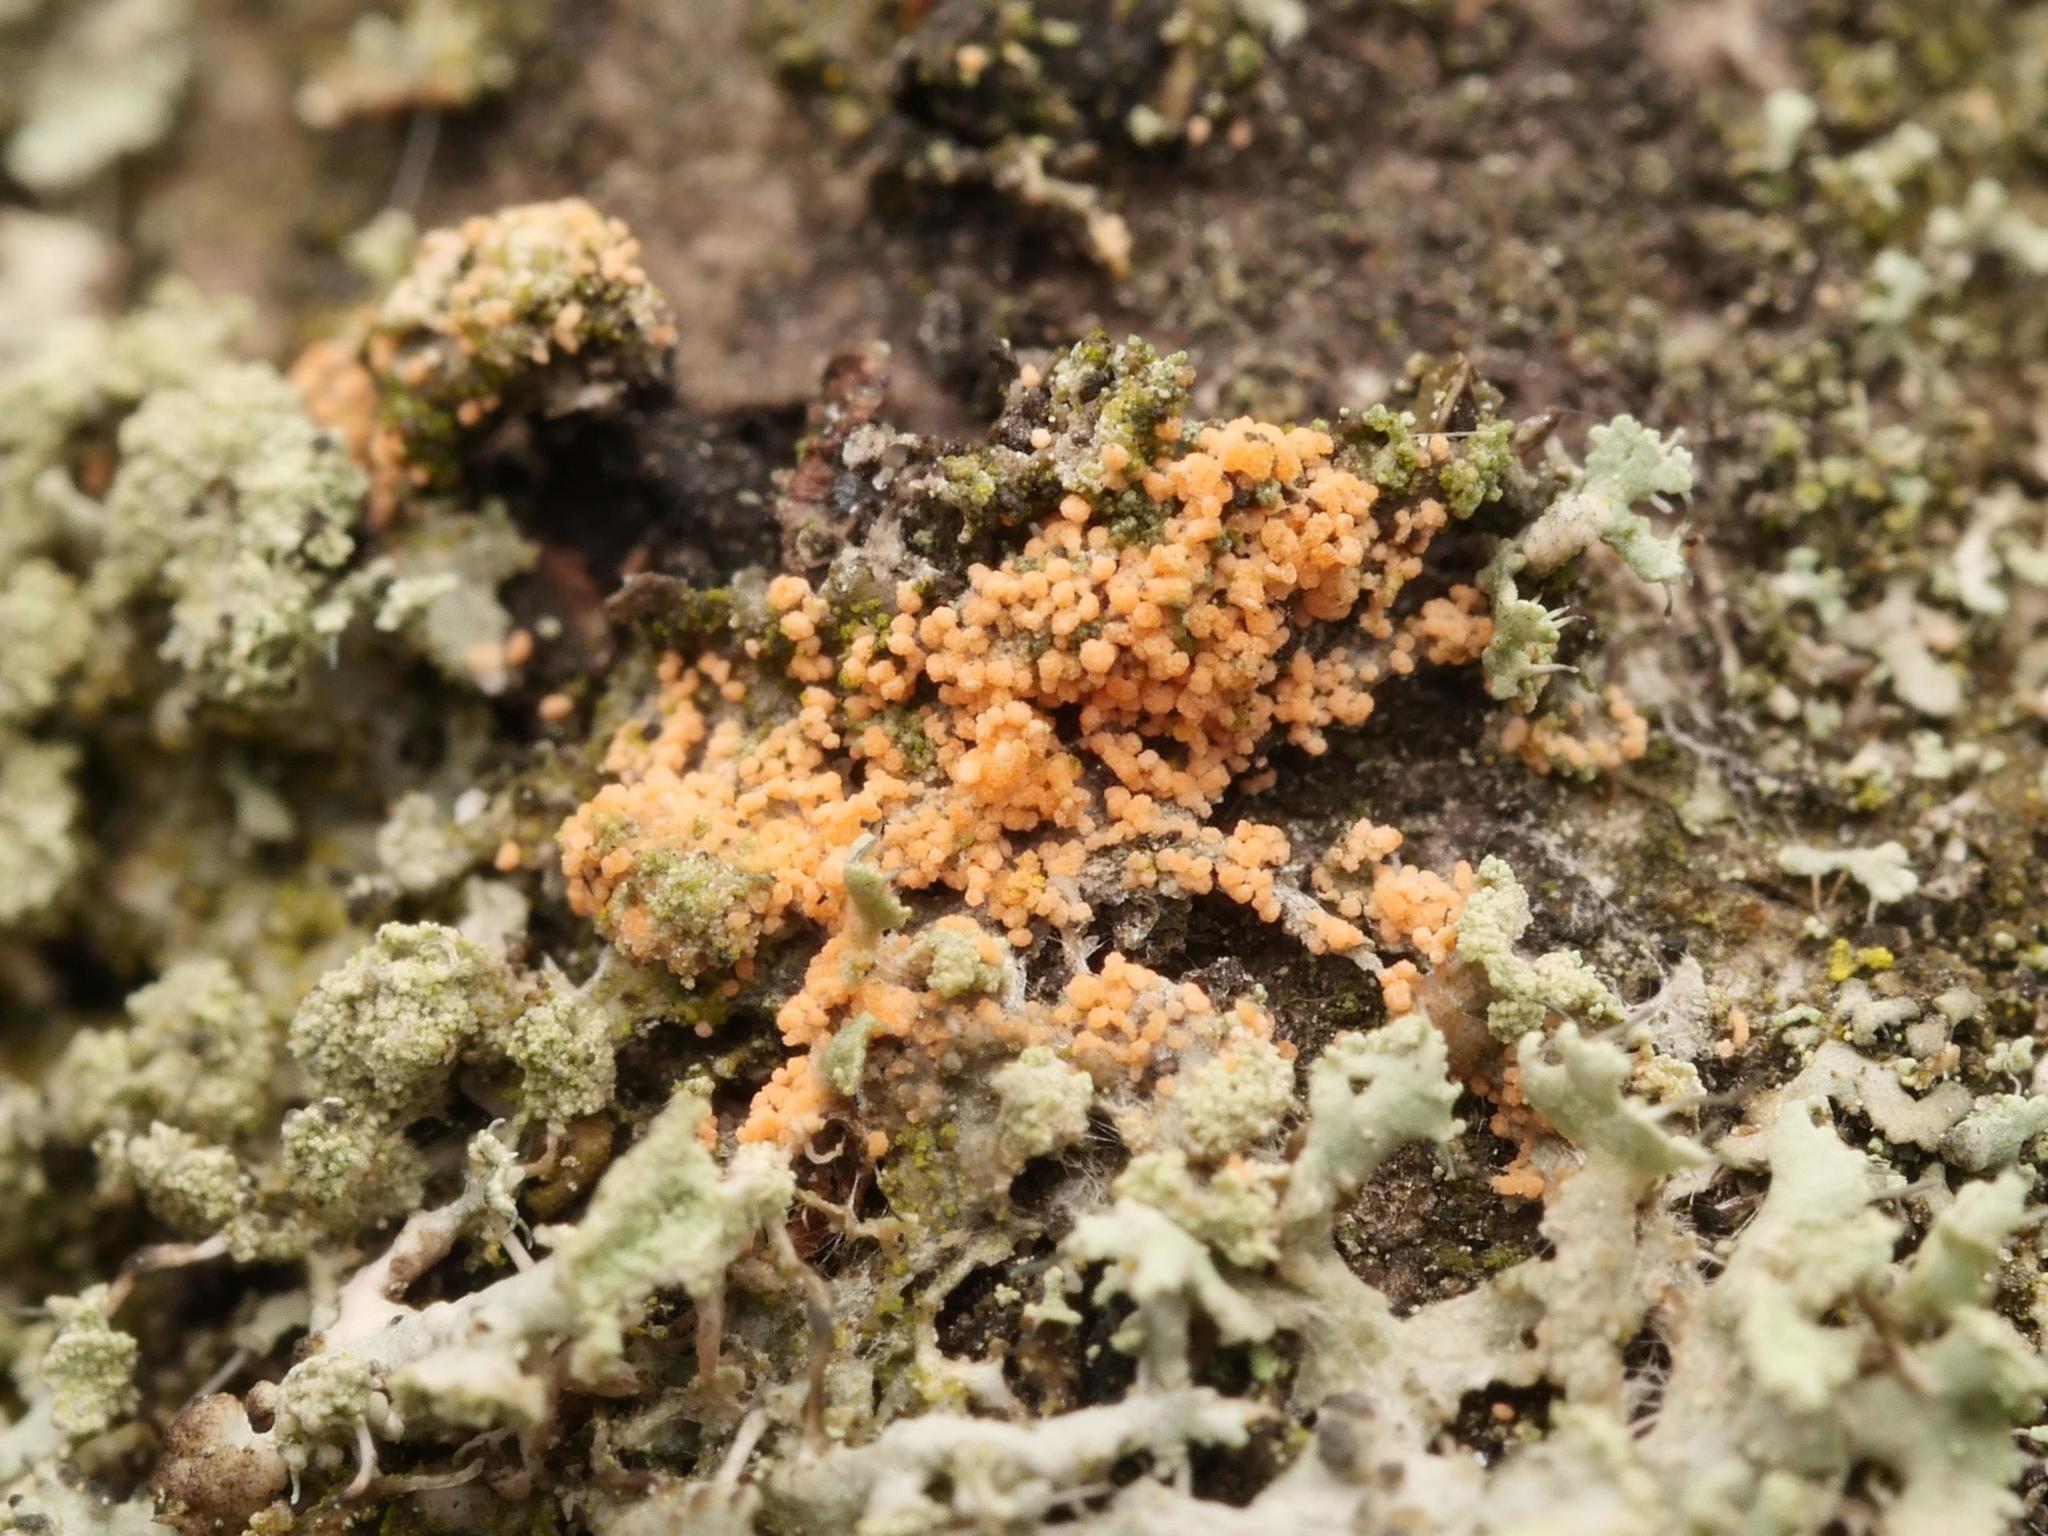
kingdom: Fungi
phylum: Basidiomycota
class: Agaricomycetes
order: Corticiales
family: Corticiaceae
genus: Erythricium
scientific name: Erythricium aurantiacum
